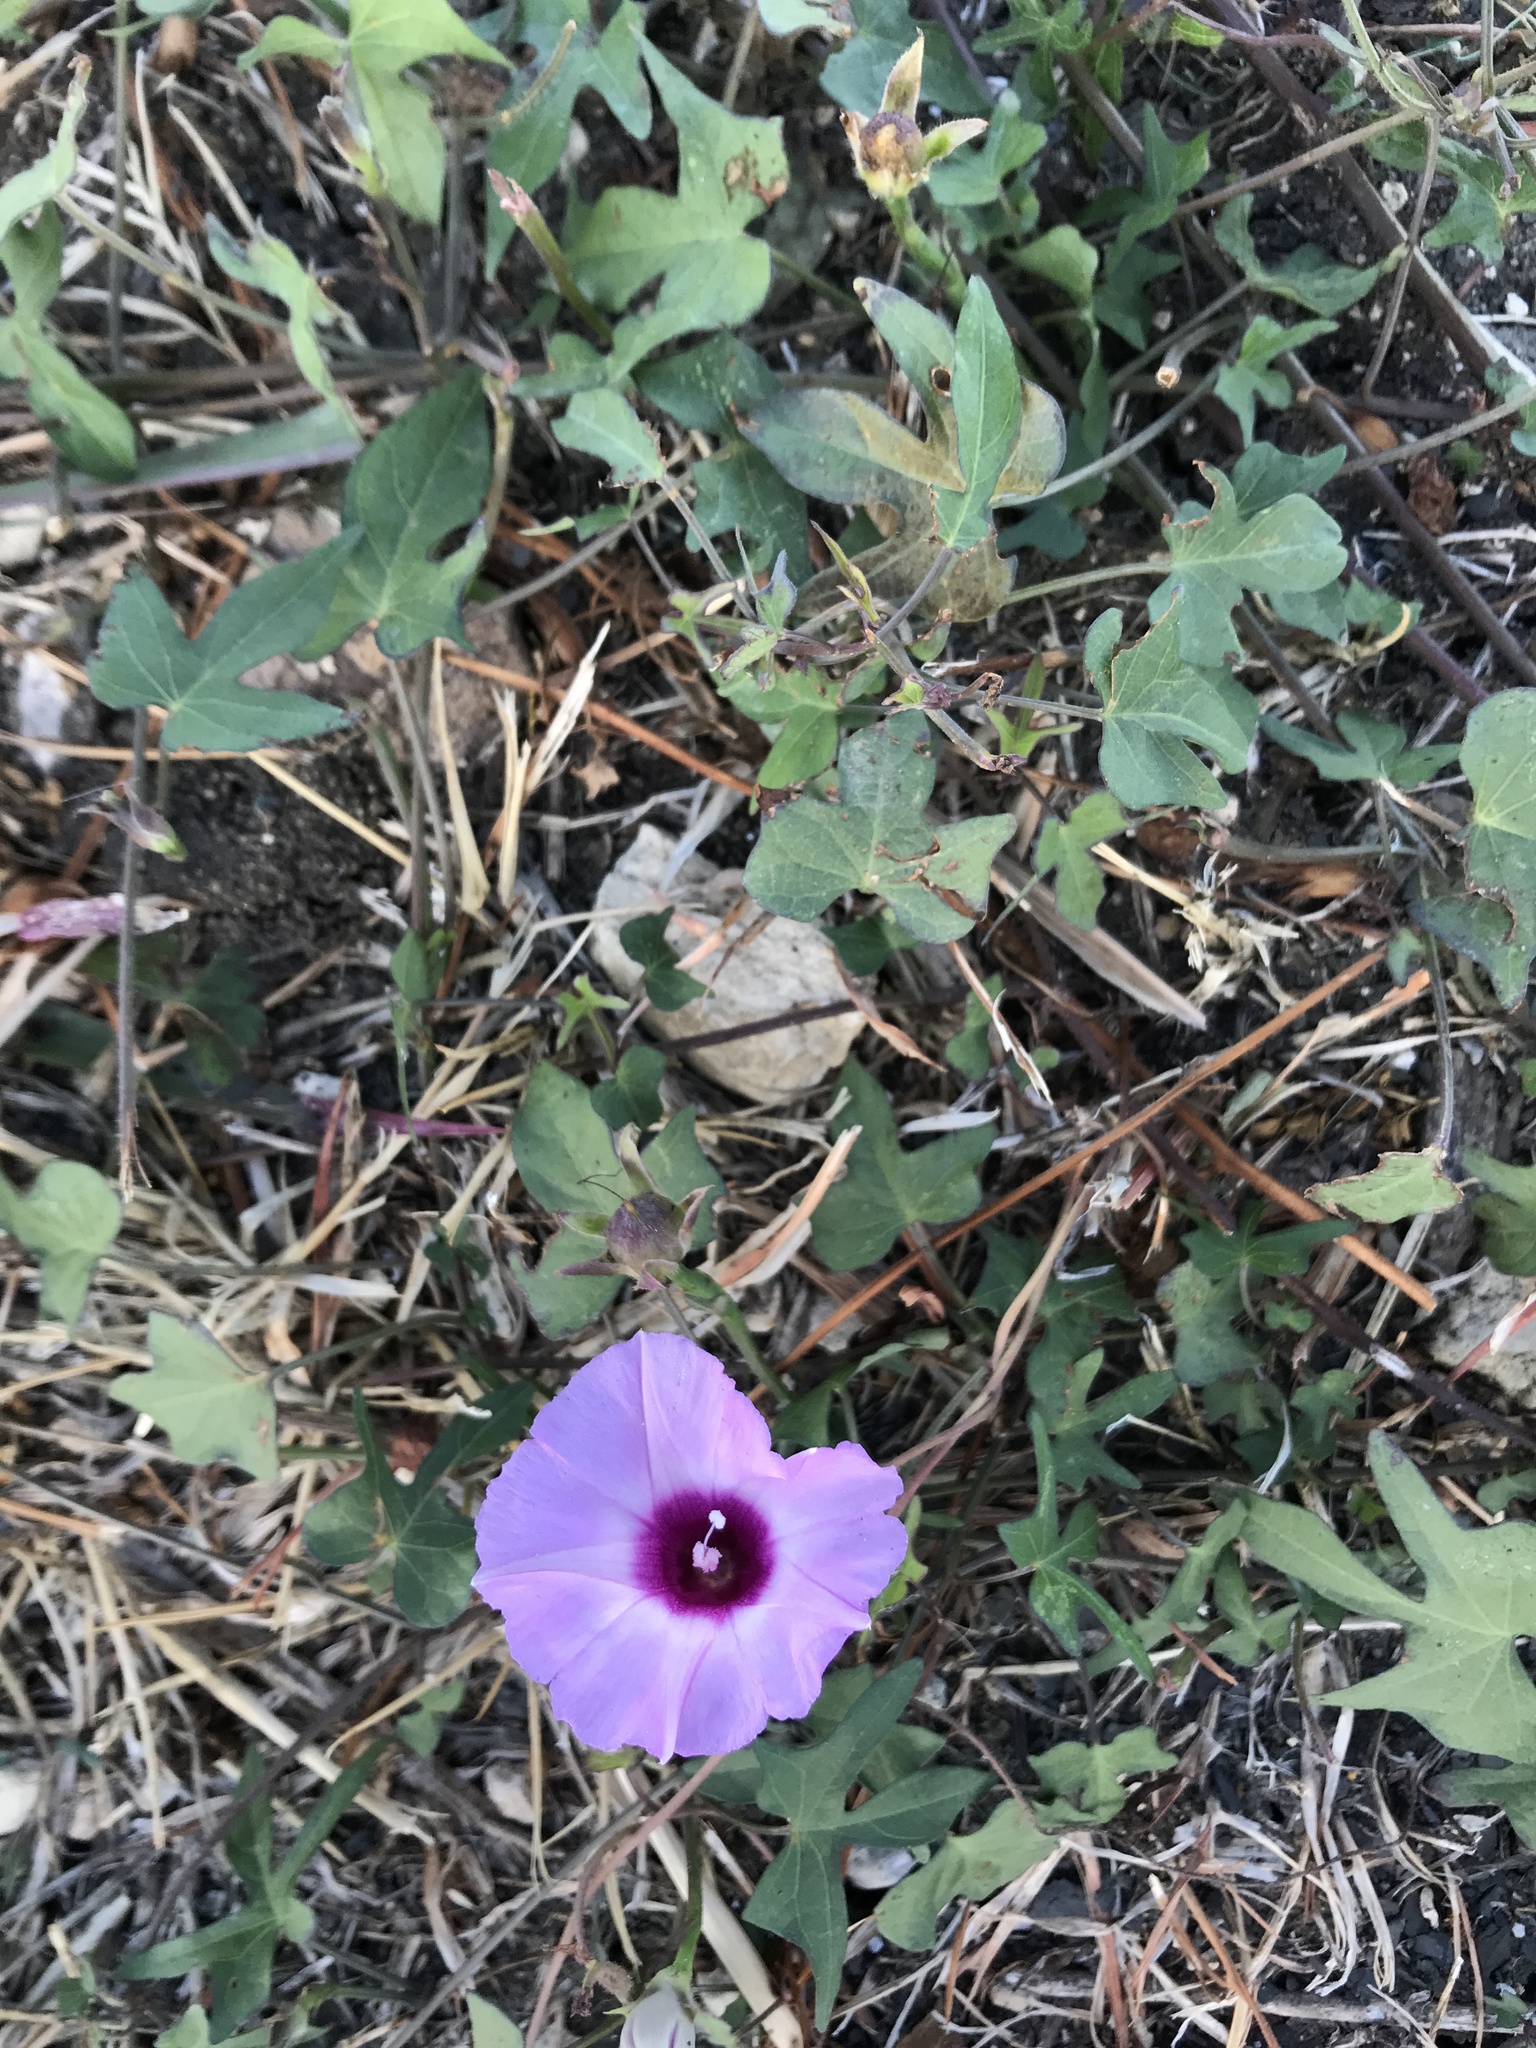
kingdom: Plantae
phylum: Tracheophyta
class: Magnoliopsida
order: Solanales
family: Convolvulaceae
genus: Ipomoea
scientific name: Ipomoea cordatotriloba
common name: Cotton morning glory
